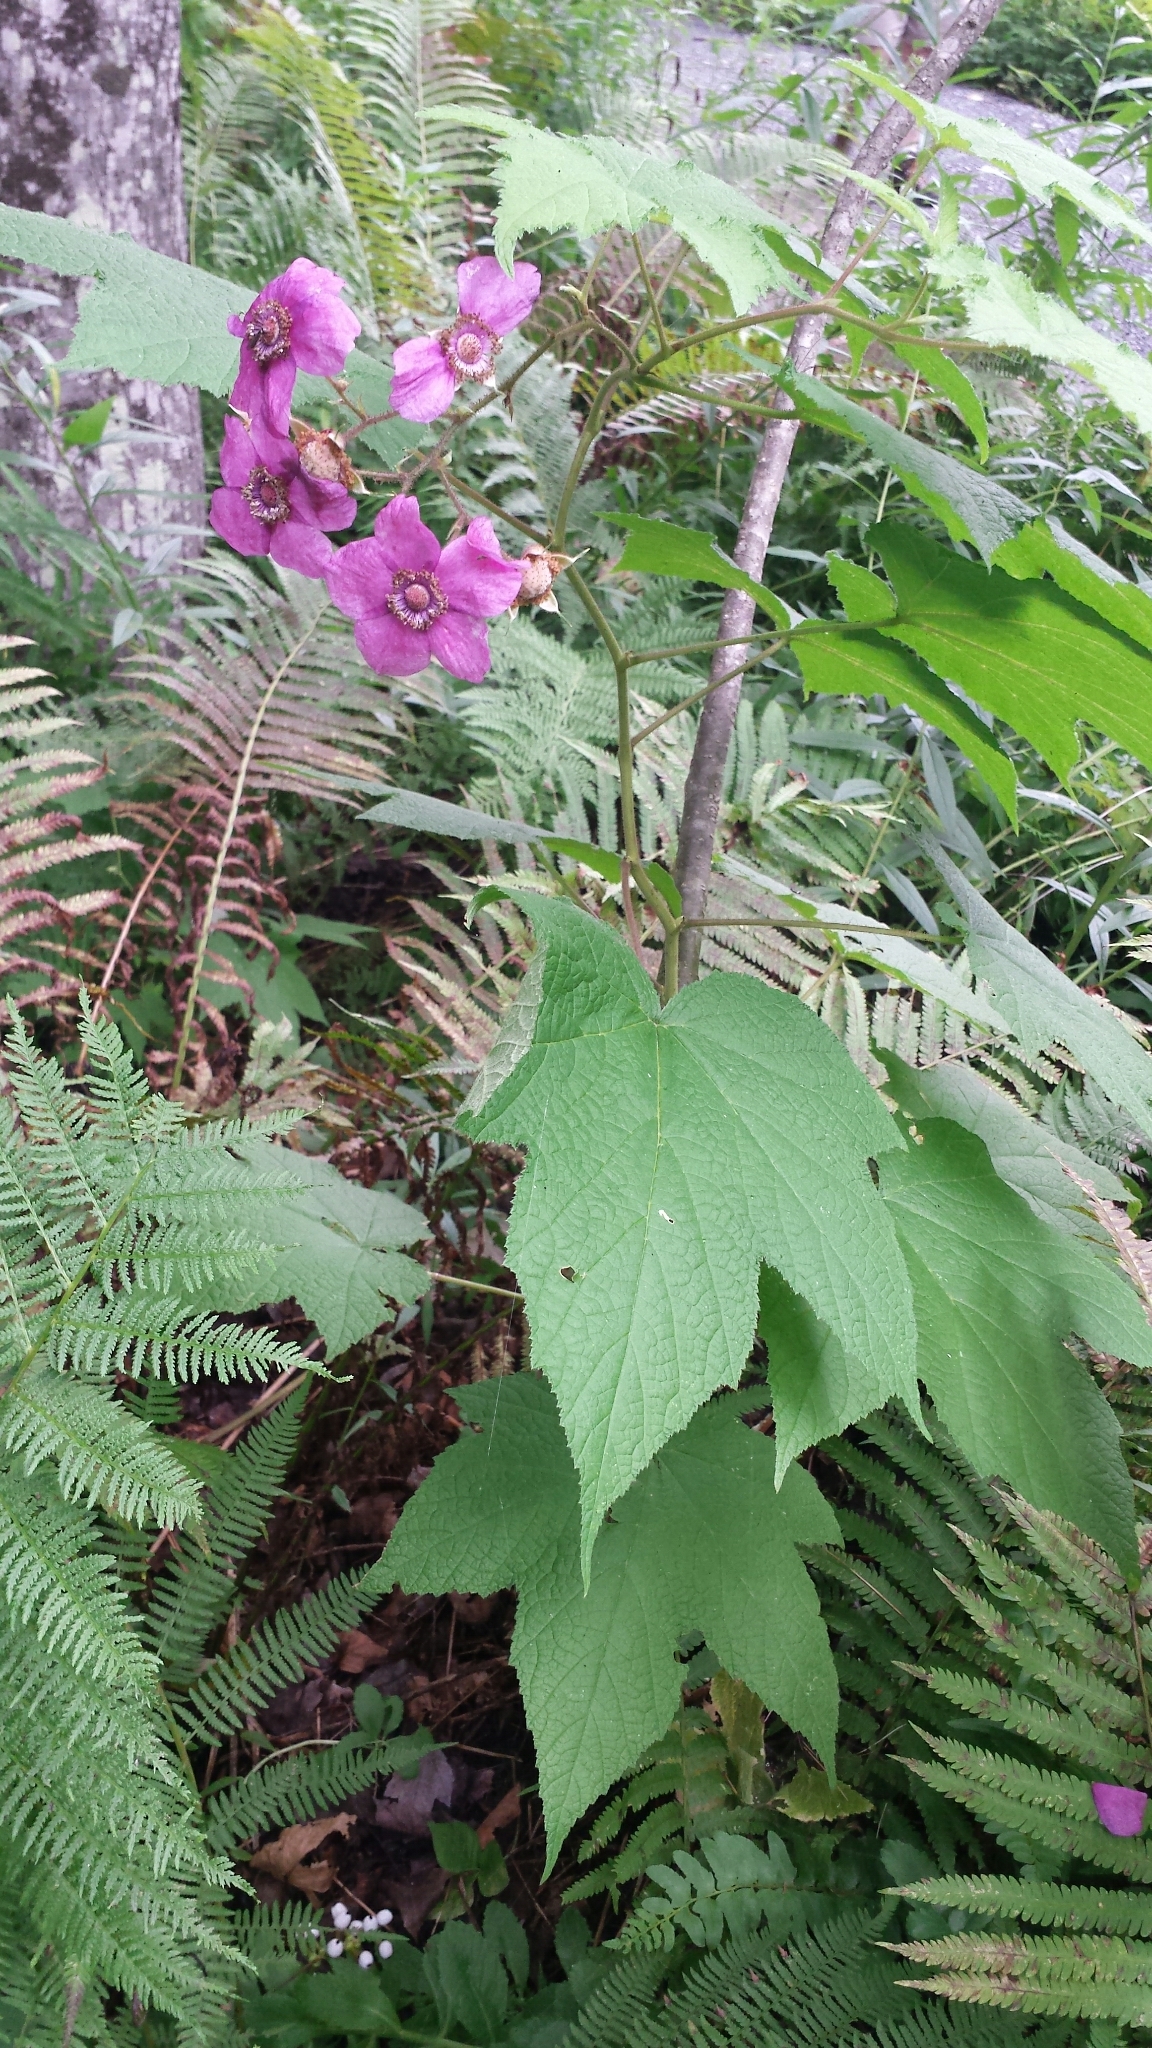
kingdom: Plantae
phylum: Tracheophyta
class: Magnoliopsida
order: Rosales
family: Rosaceae
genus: Rubus
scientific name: Rubus odoratus
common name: Purple-flowered raspberry
